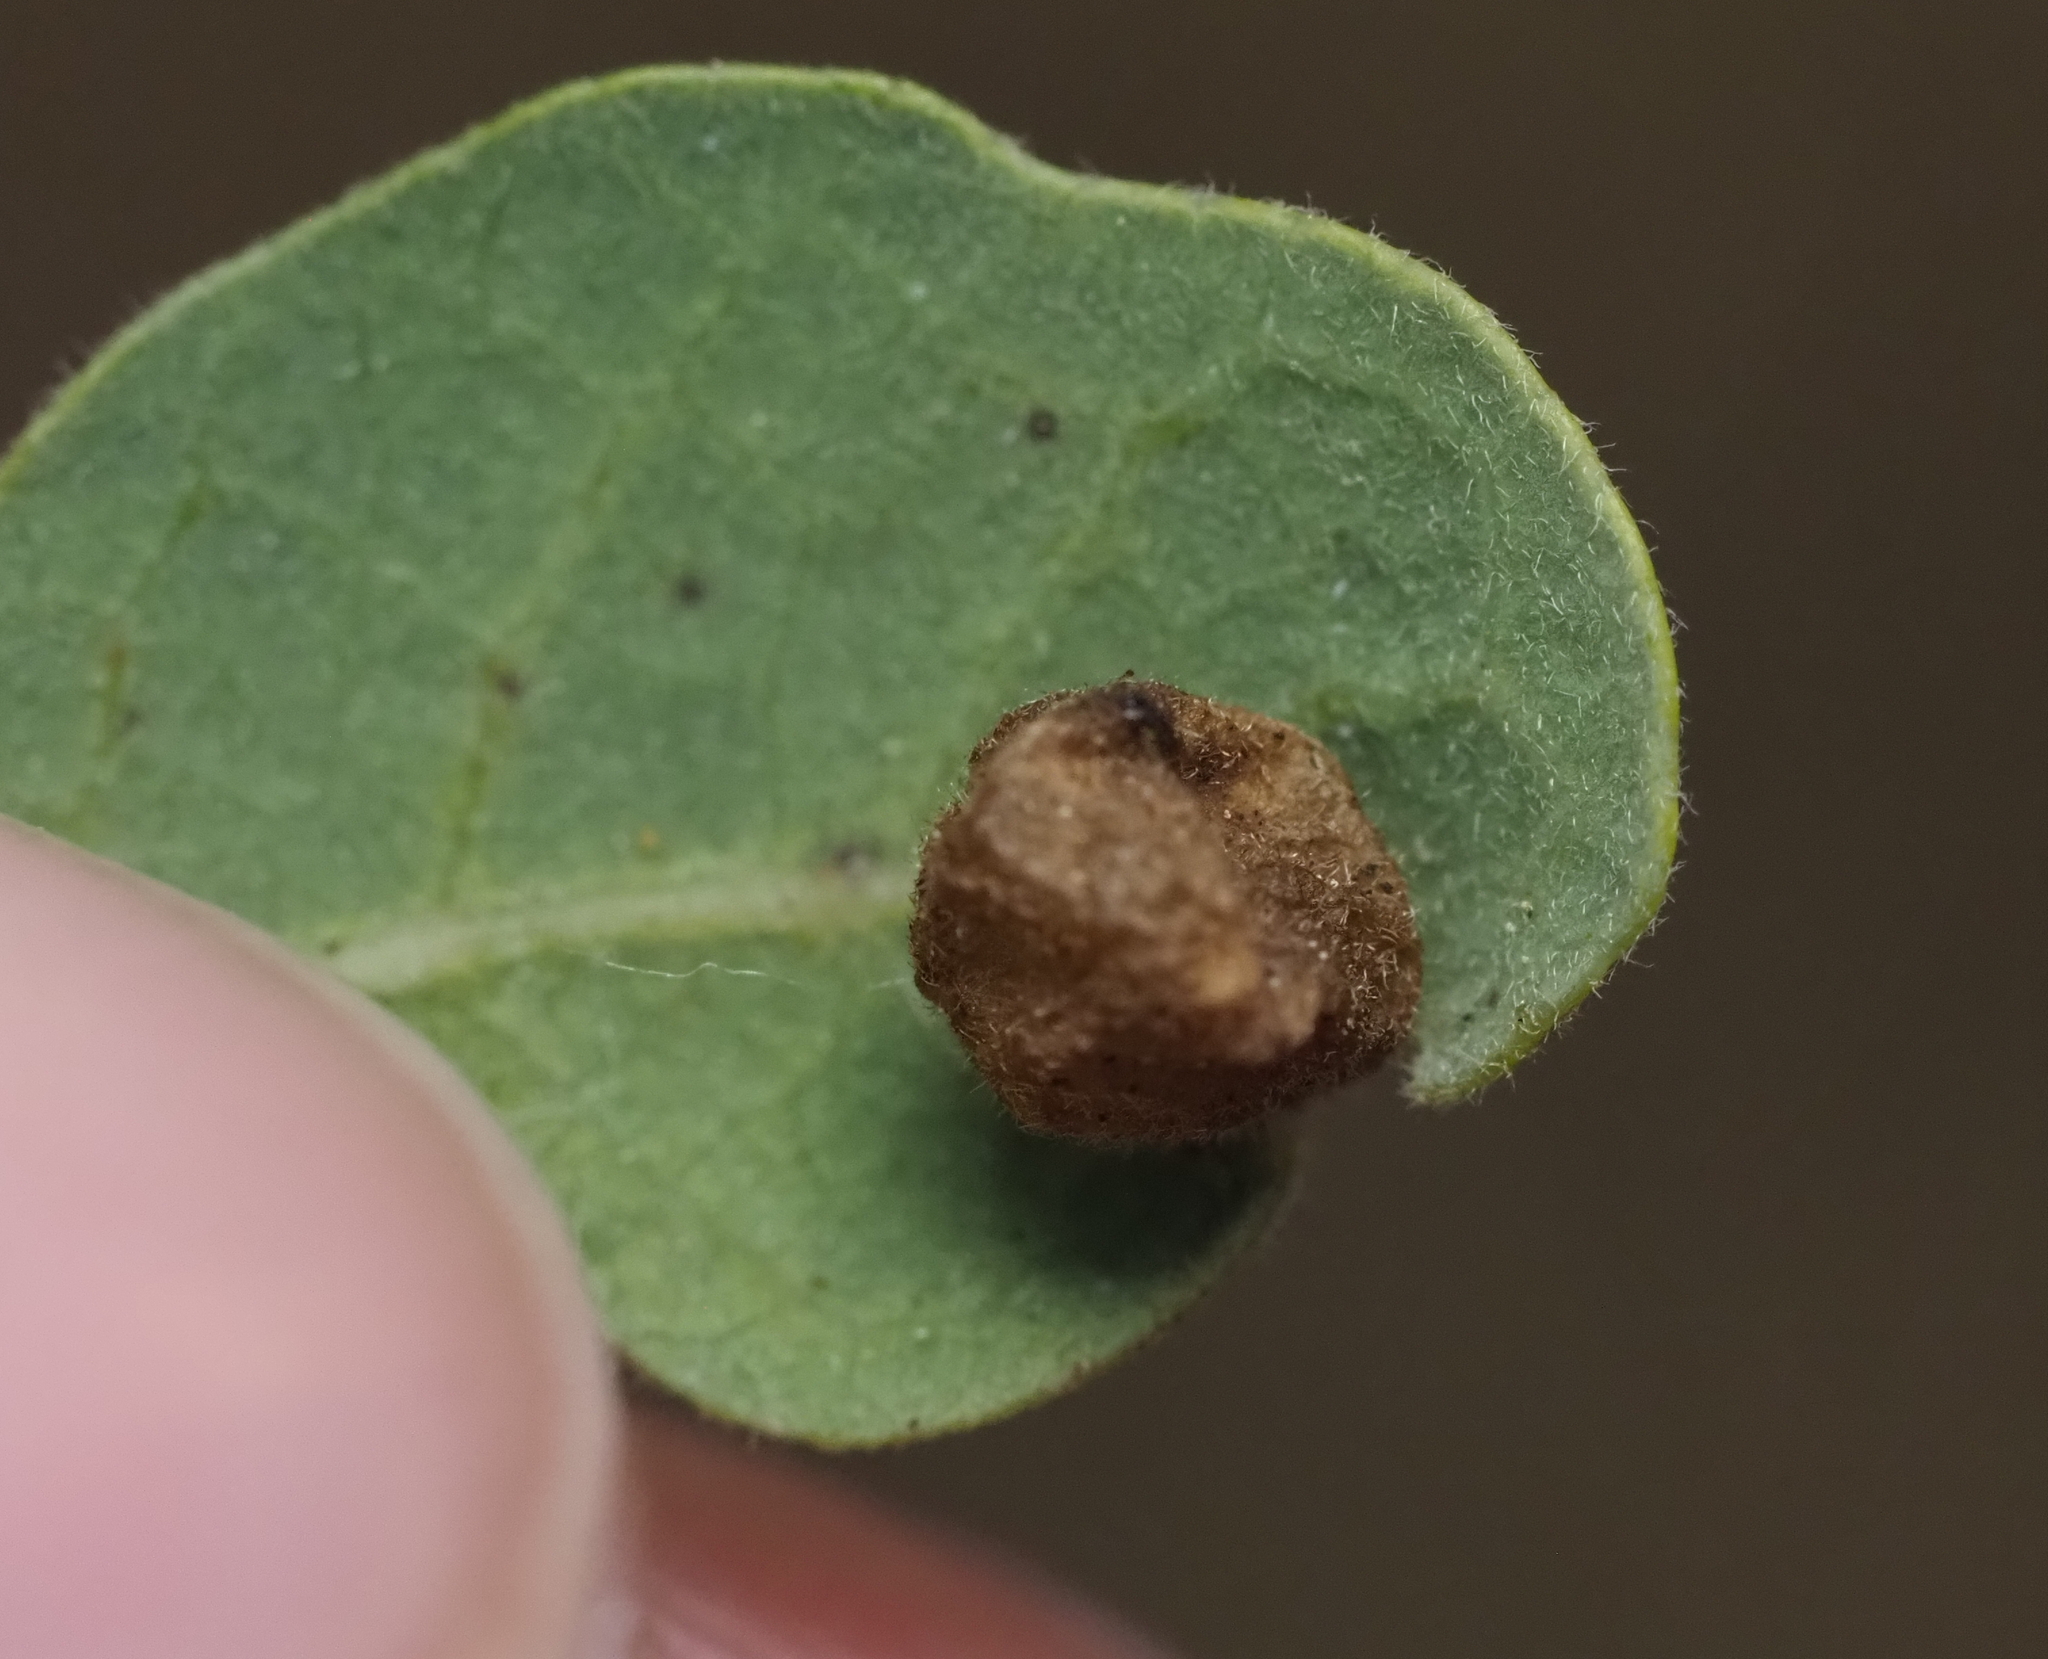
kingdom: Animalia
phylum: Arthropoda
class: Insecta
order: Hymenoptera
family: Cynipidae
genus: Andricus
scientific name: Andricus
